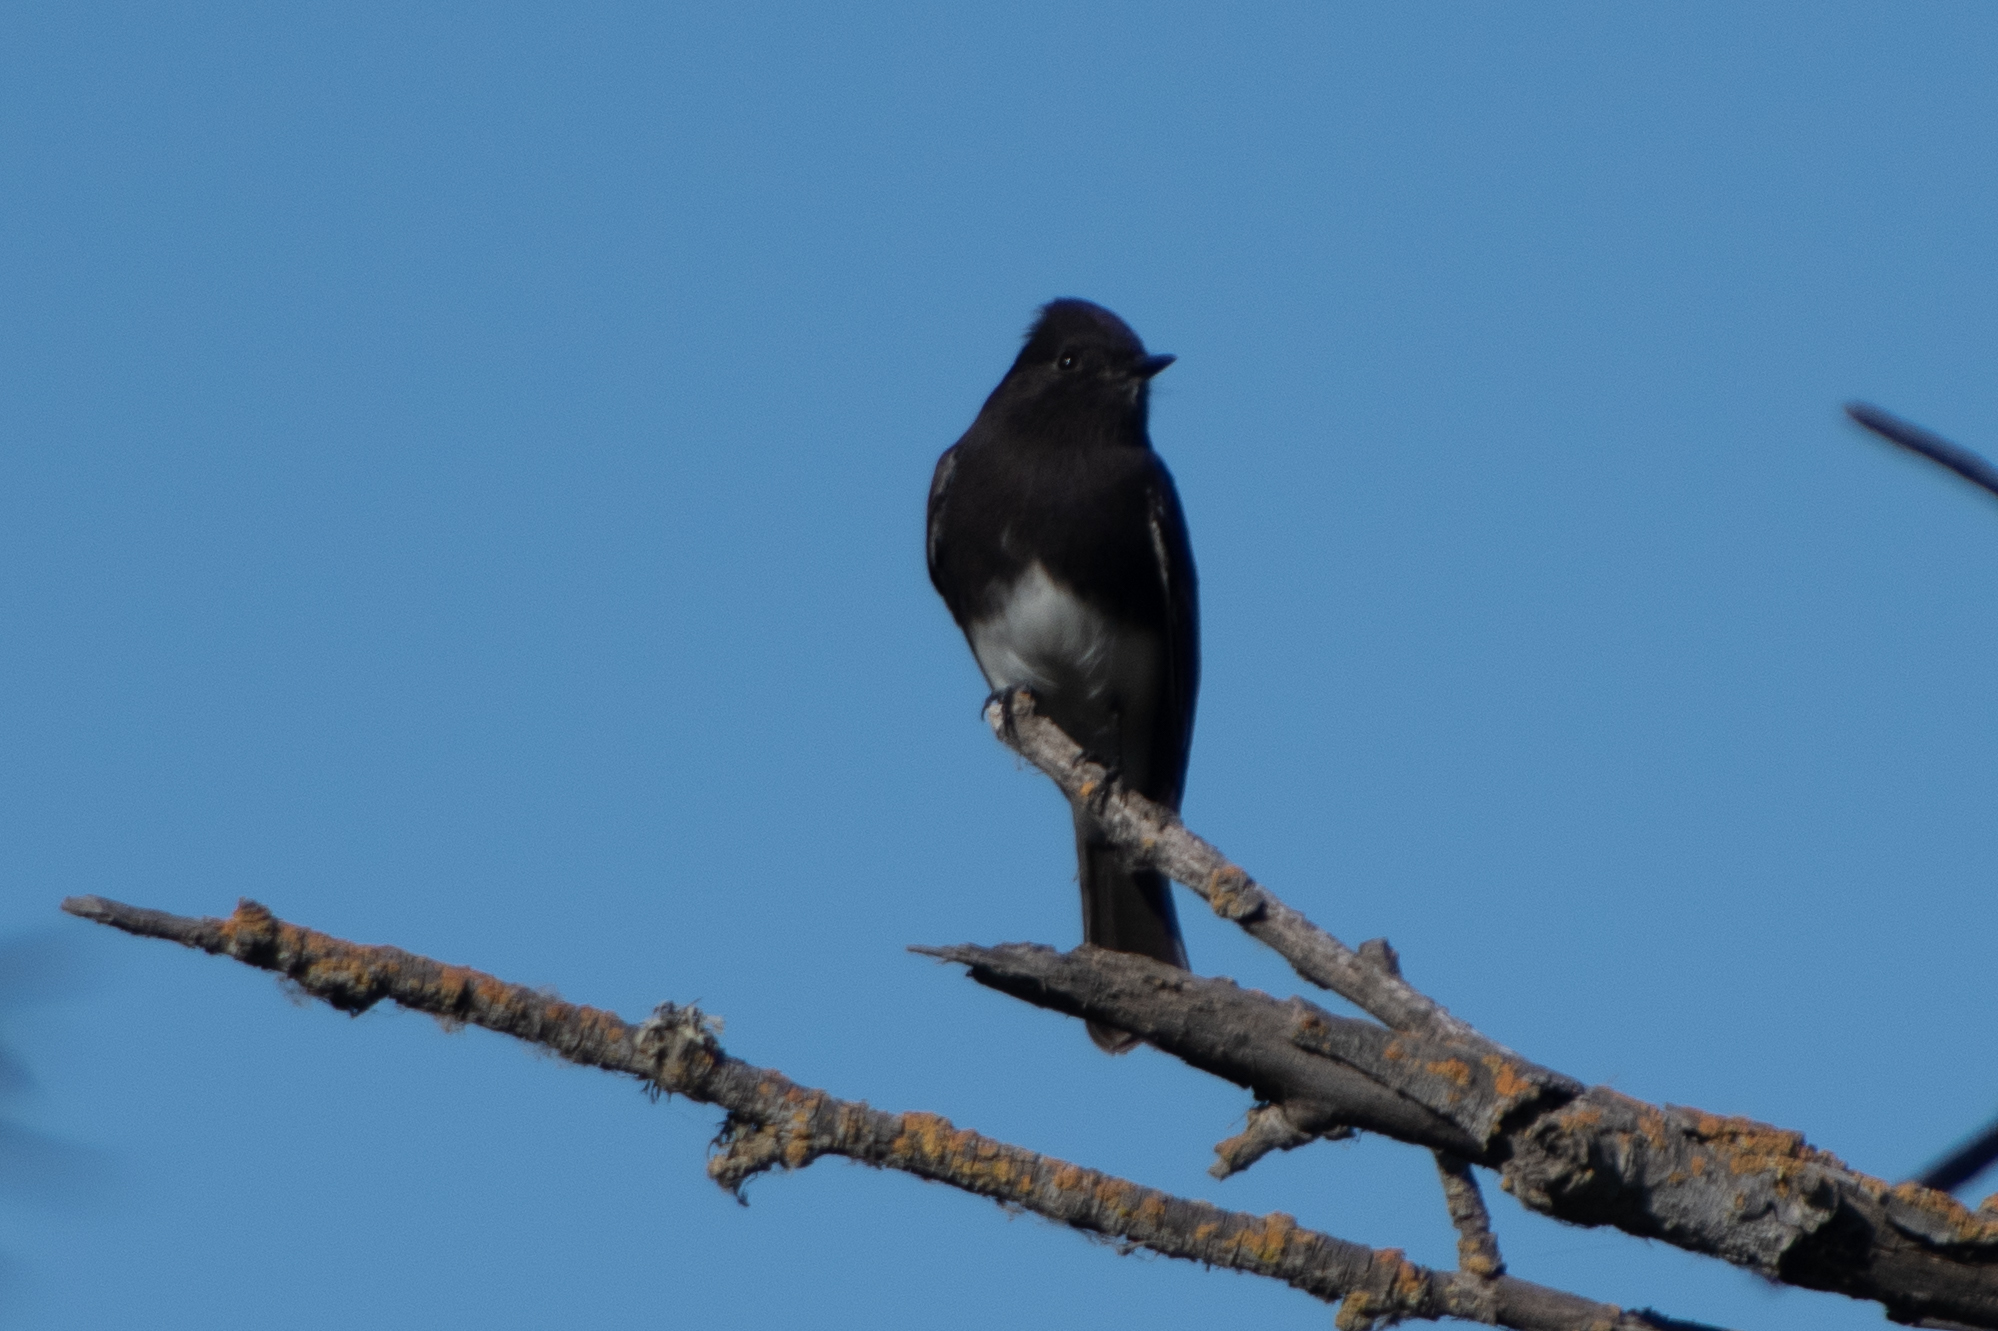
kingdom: Animalia
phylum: Chordata
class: Aves
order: Passeriformes
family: Tyrannidae
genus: Sayornis
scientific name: Sayornis nigricans
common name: Black phoebe
